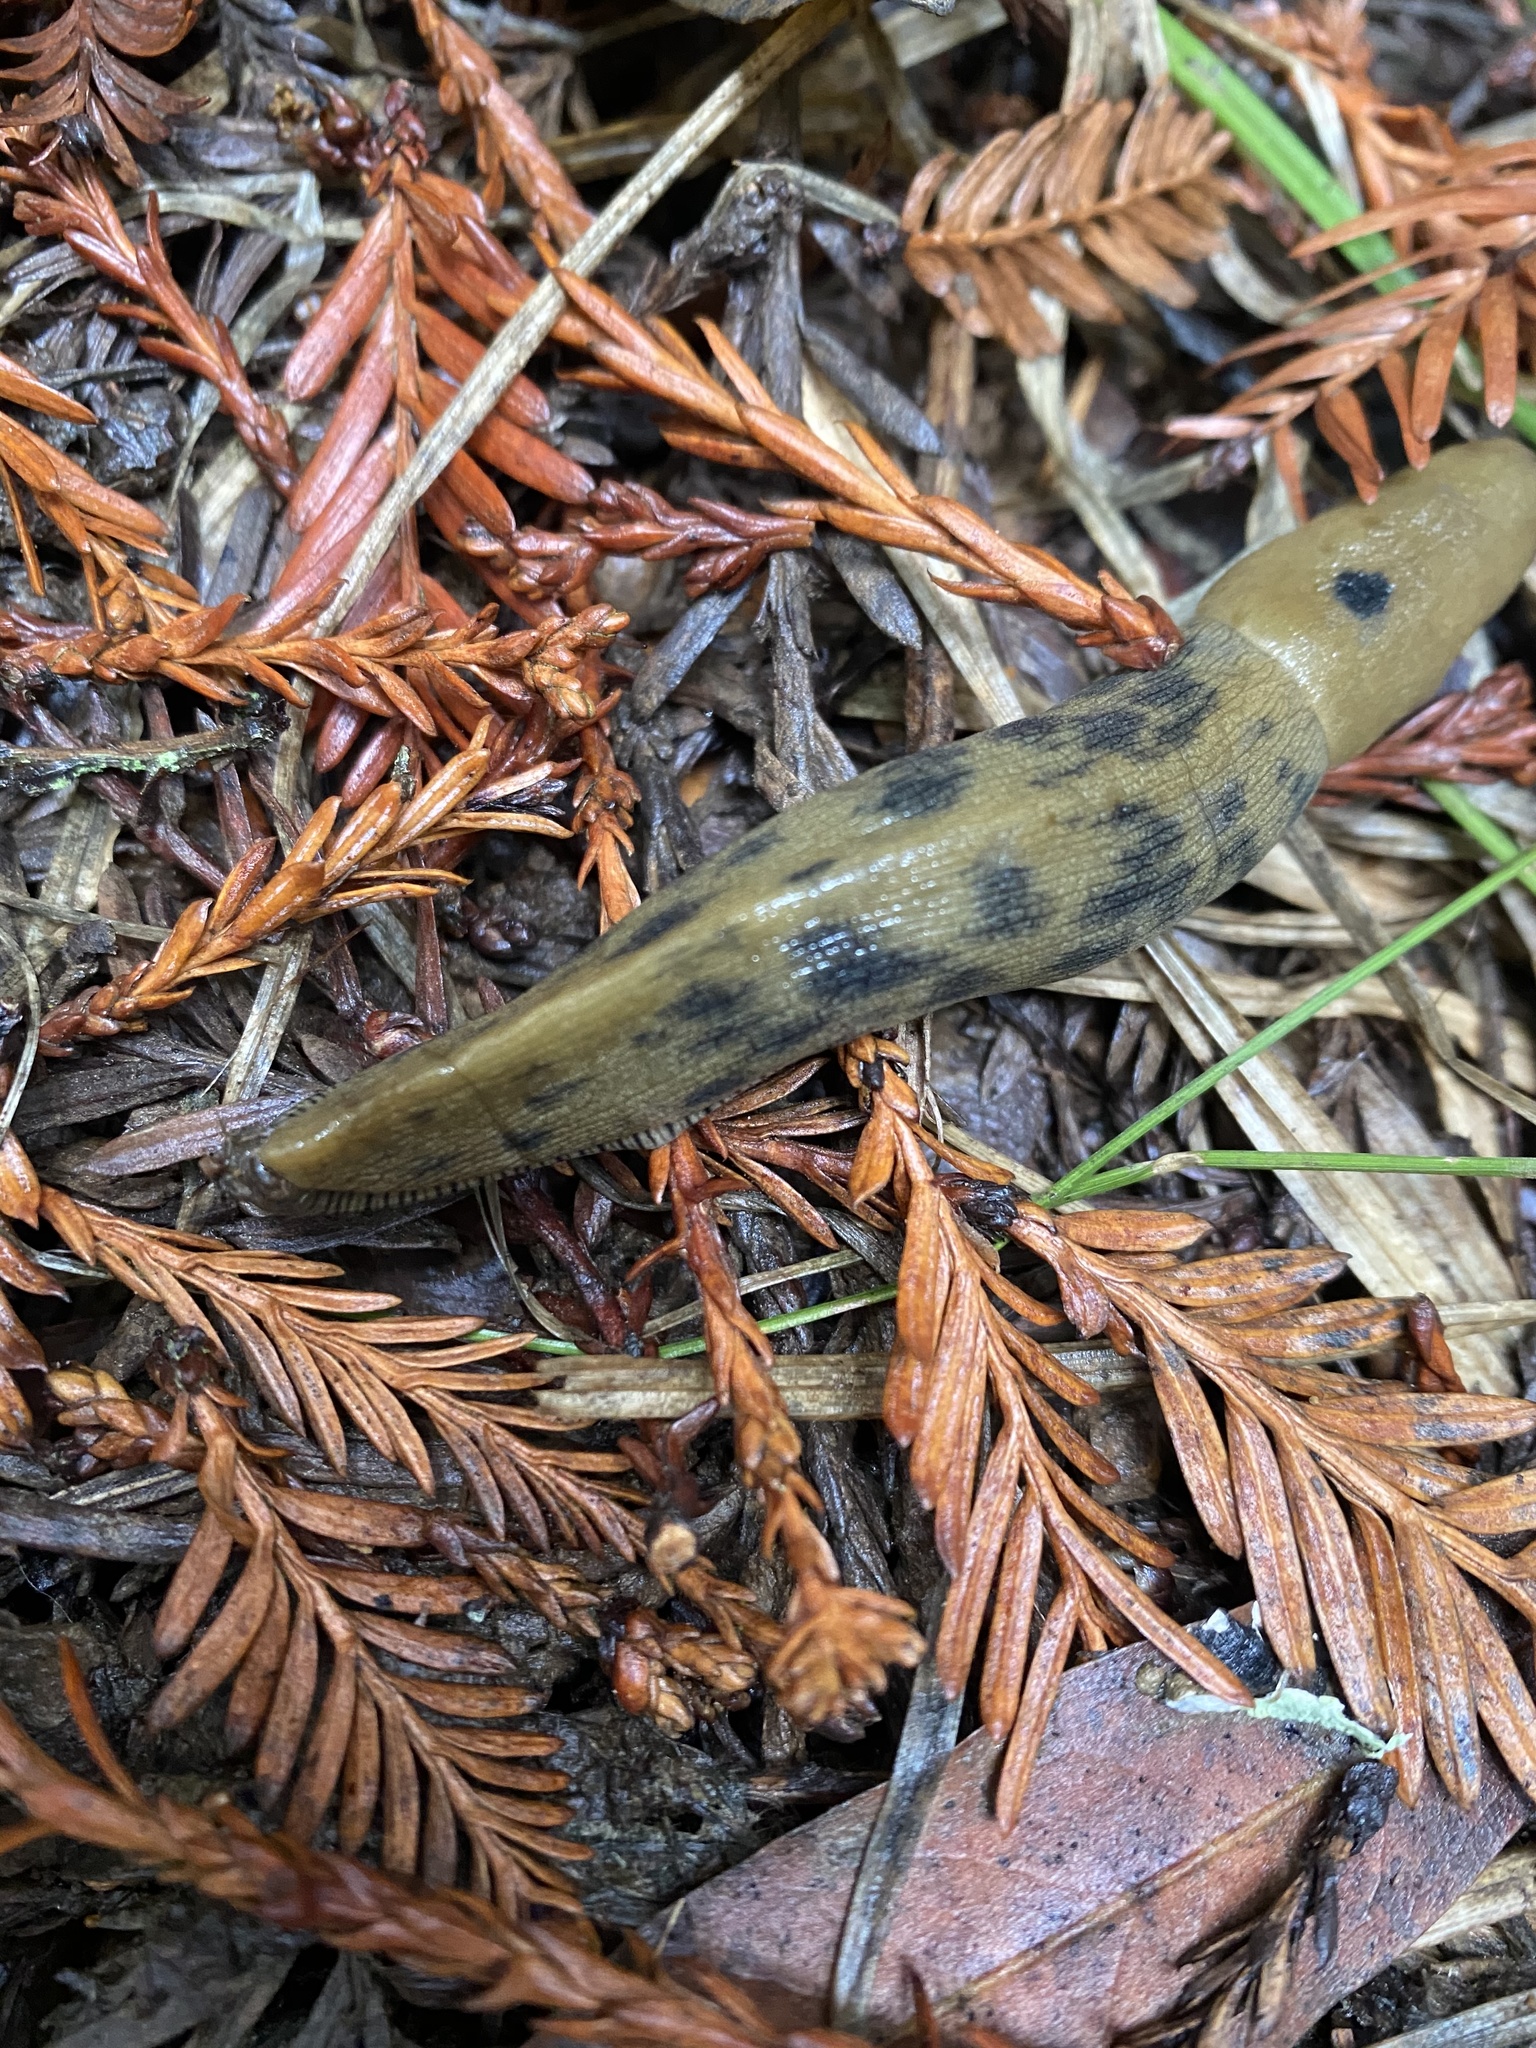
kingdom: Animalia
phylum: Mollusca
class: Gastropoda
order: Stylommatophora
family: Ariolimacidae
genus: Ariolimax
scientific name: Ariolimax buttoni
